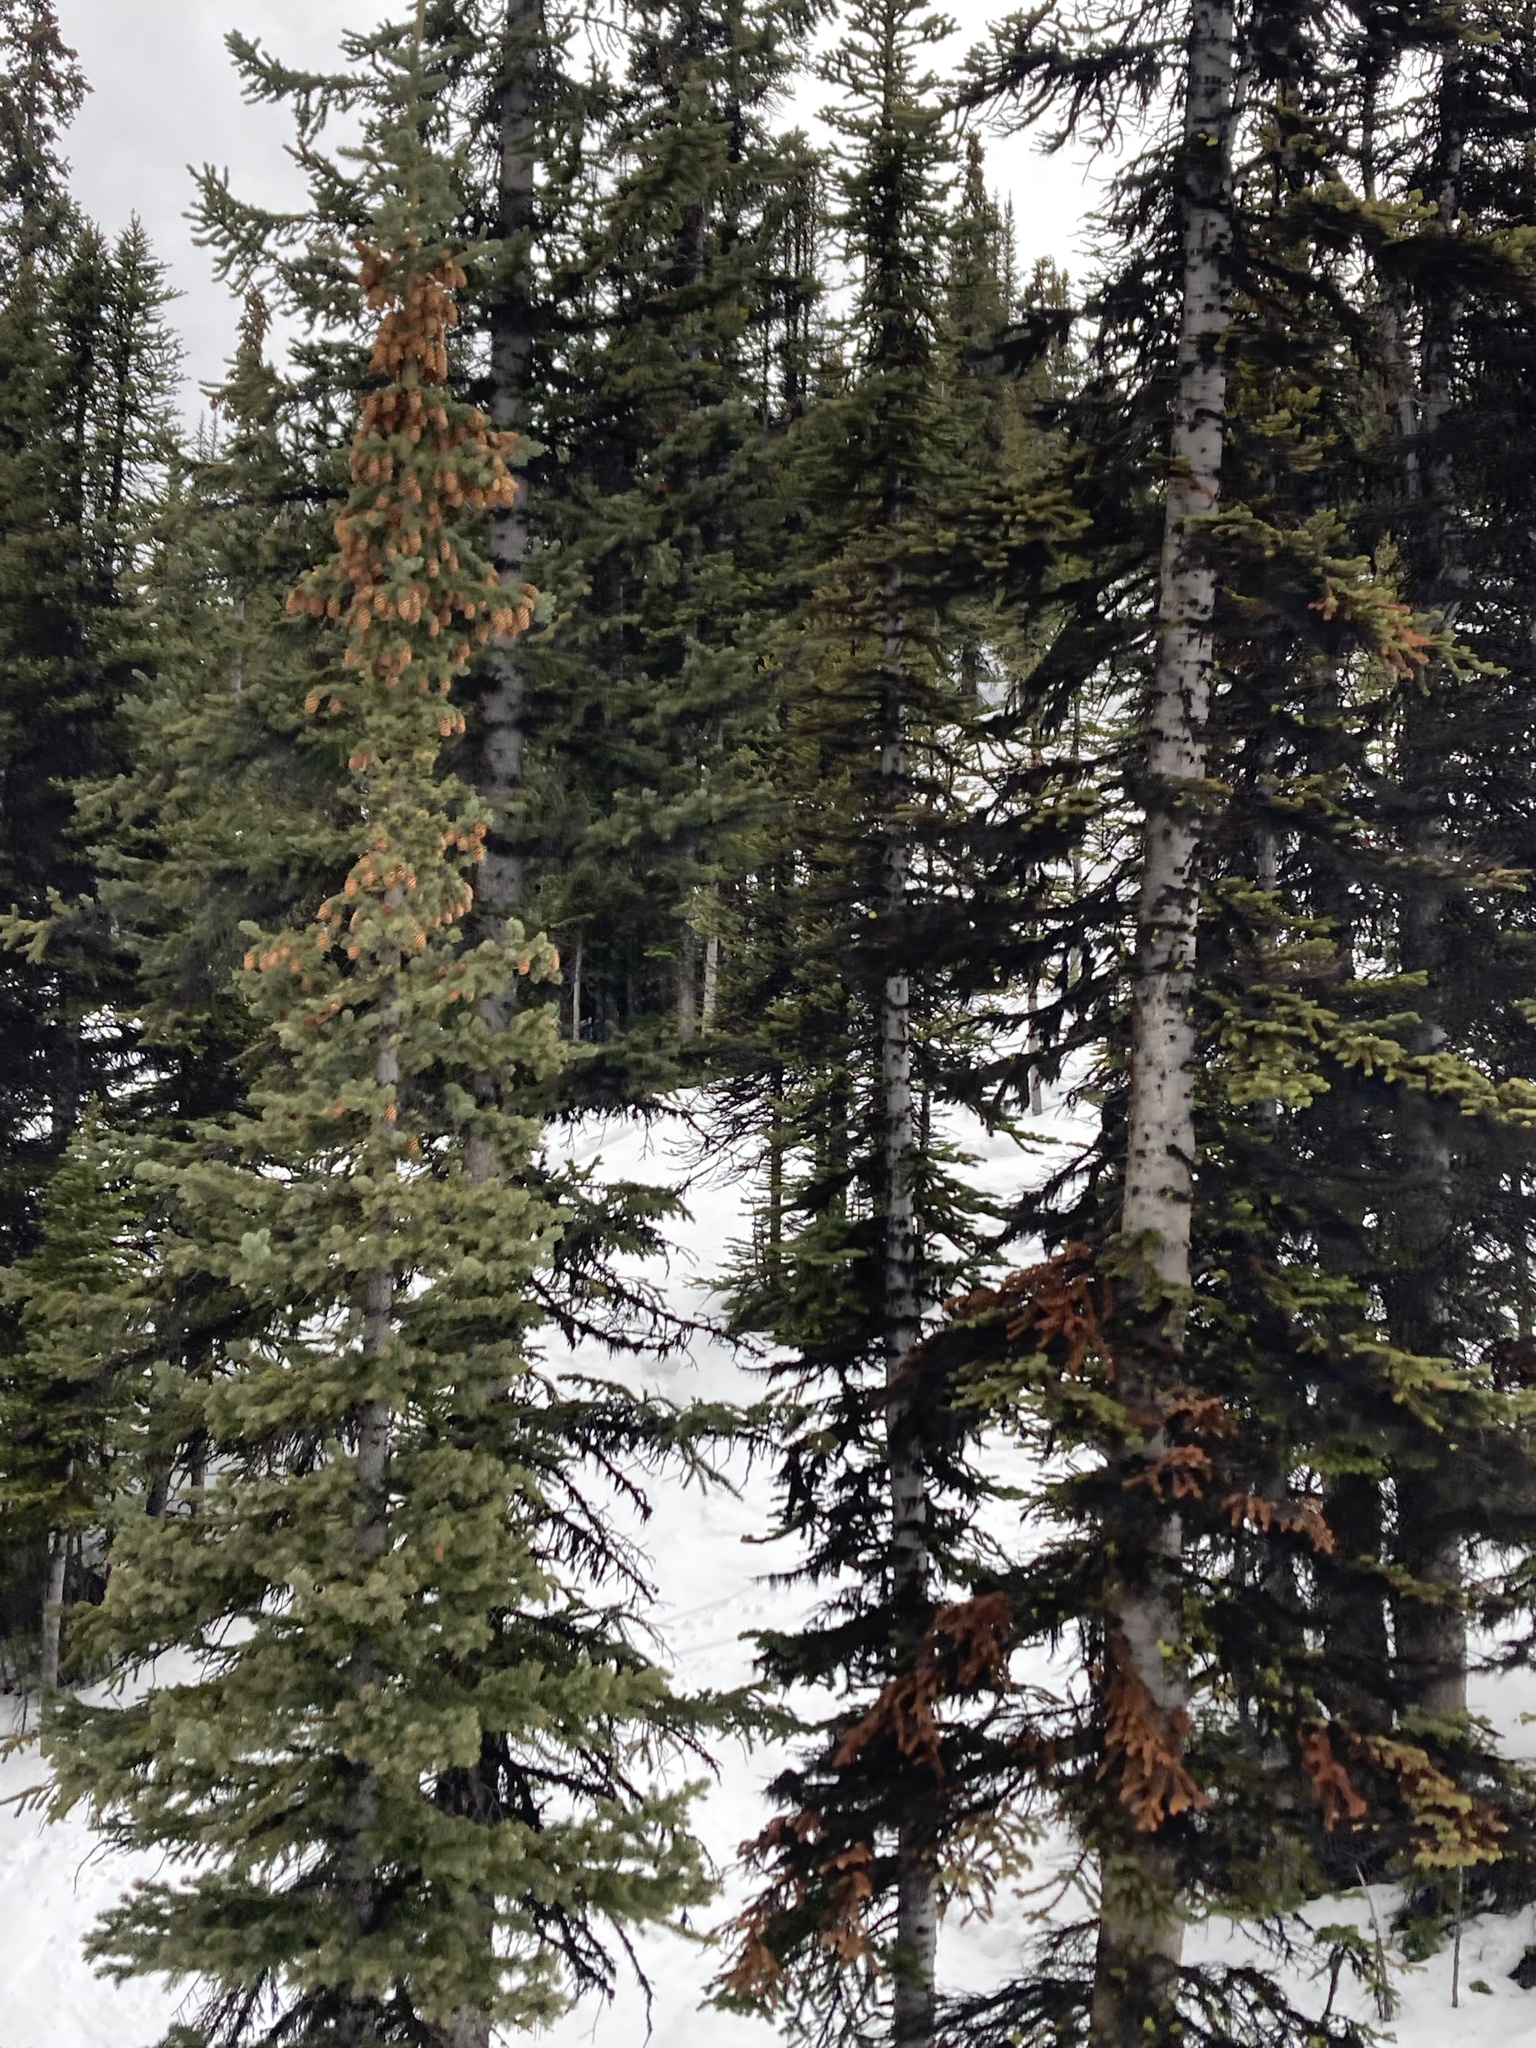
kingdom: Plantae
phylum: Tracheophyta
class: Pinopsida
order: Pinales
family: Pinaceae
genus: Picea
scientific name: Picea engelmannii
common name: Engelmann spruce
